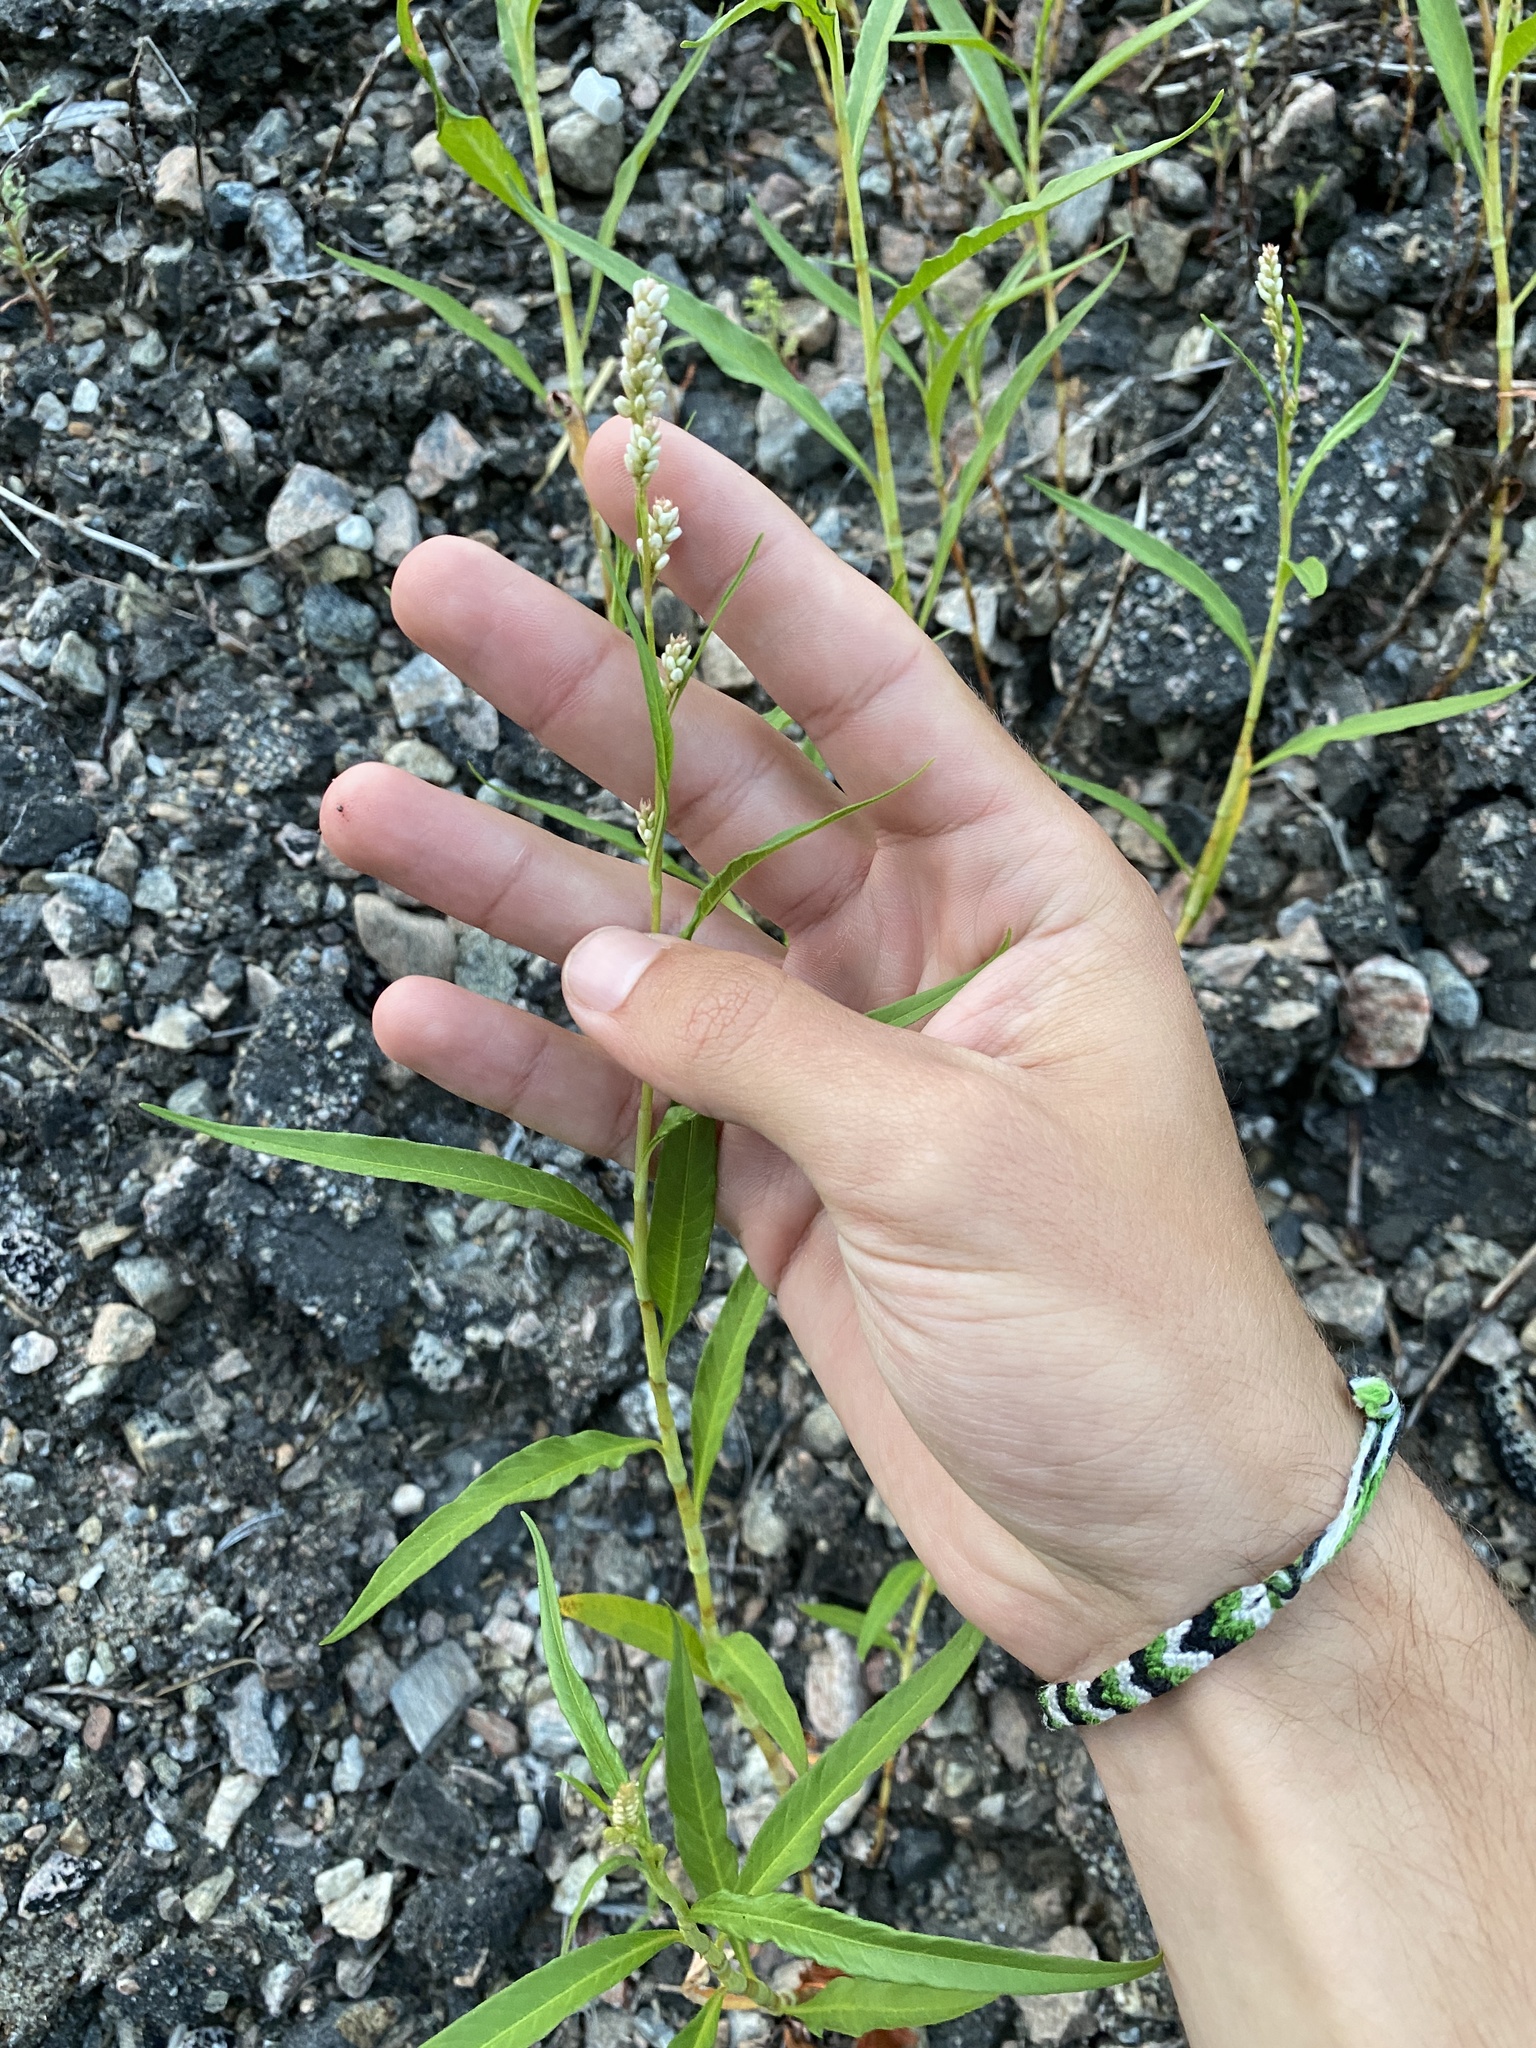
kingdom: Plantae
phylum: Tracheophyta
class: Magnoliopsida
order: Caryophyllales
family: Polygonaceae
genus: Persicaria
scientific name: Persicaria lapathifolia
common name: Curlytop knotweed
